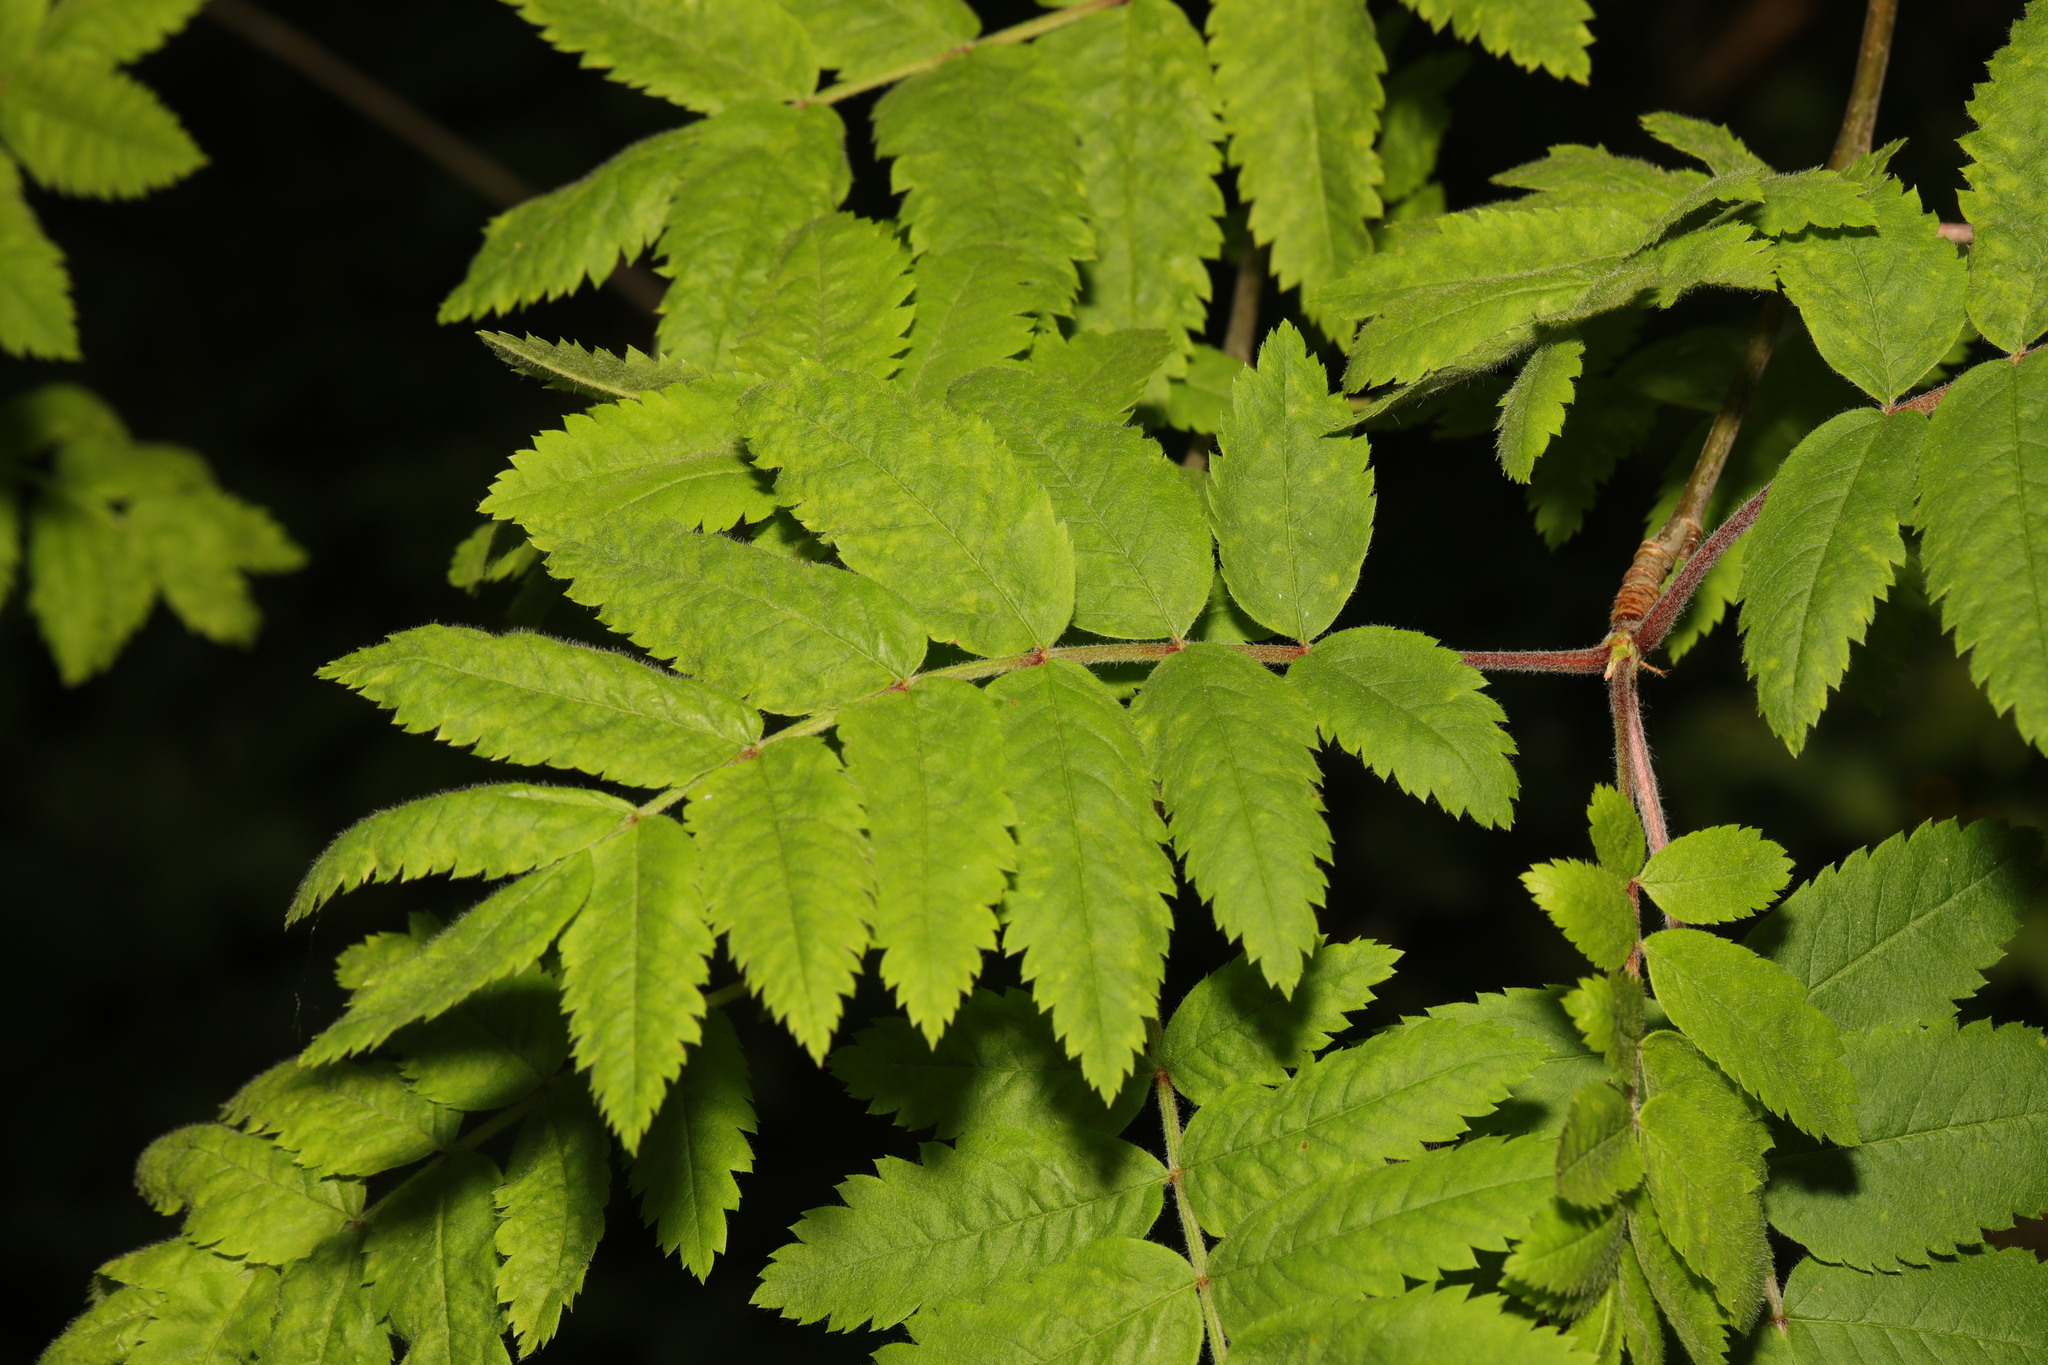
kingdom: Plantae
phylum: Tracheophyta
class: Magnoliopsida
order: Rosales
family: Rosaceae
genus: Sorbus
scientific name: Sorbus aucuparia
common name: Rowan
